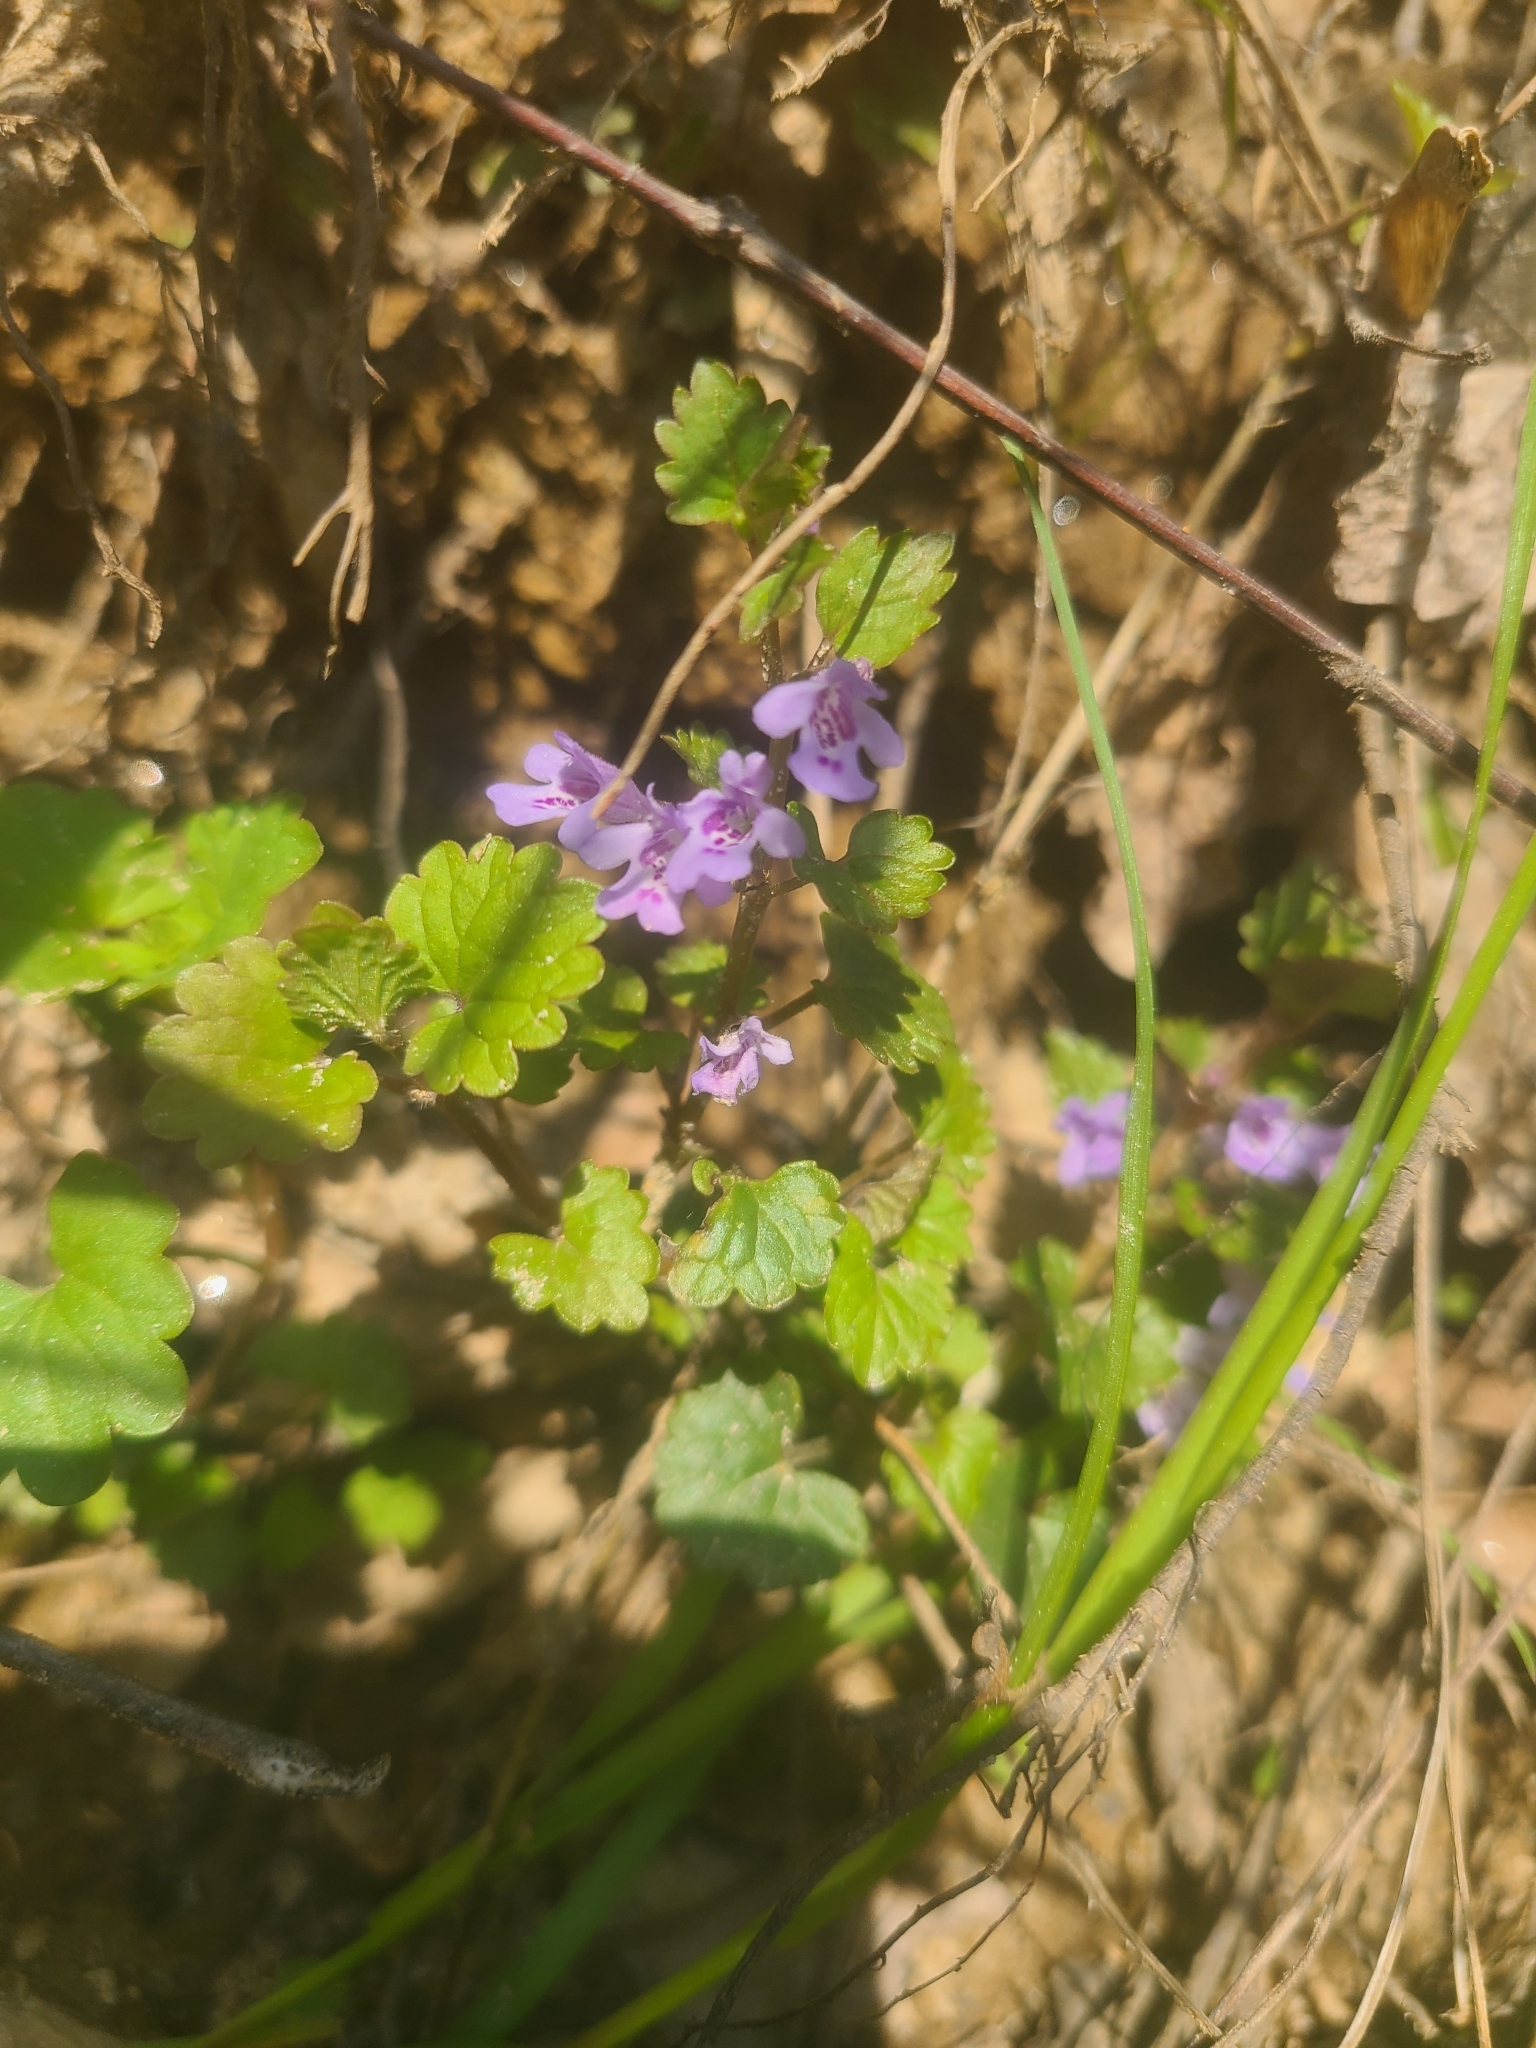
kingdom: Plantae
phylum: Tracheophyta
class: Magnoliopsida
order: Lamiales
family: Lamiaceae
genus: Glechoma
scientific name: Glechoma hederacea
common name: Ground ivy
